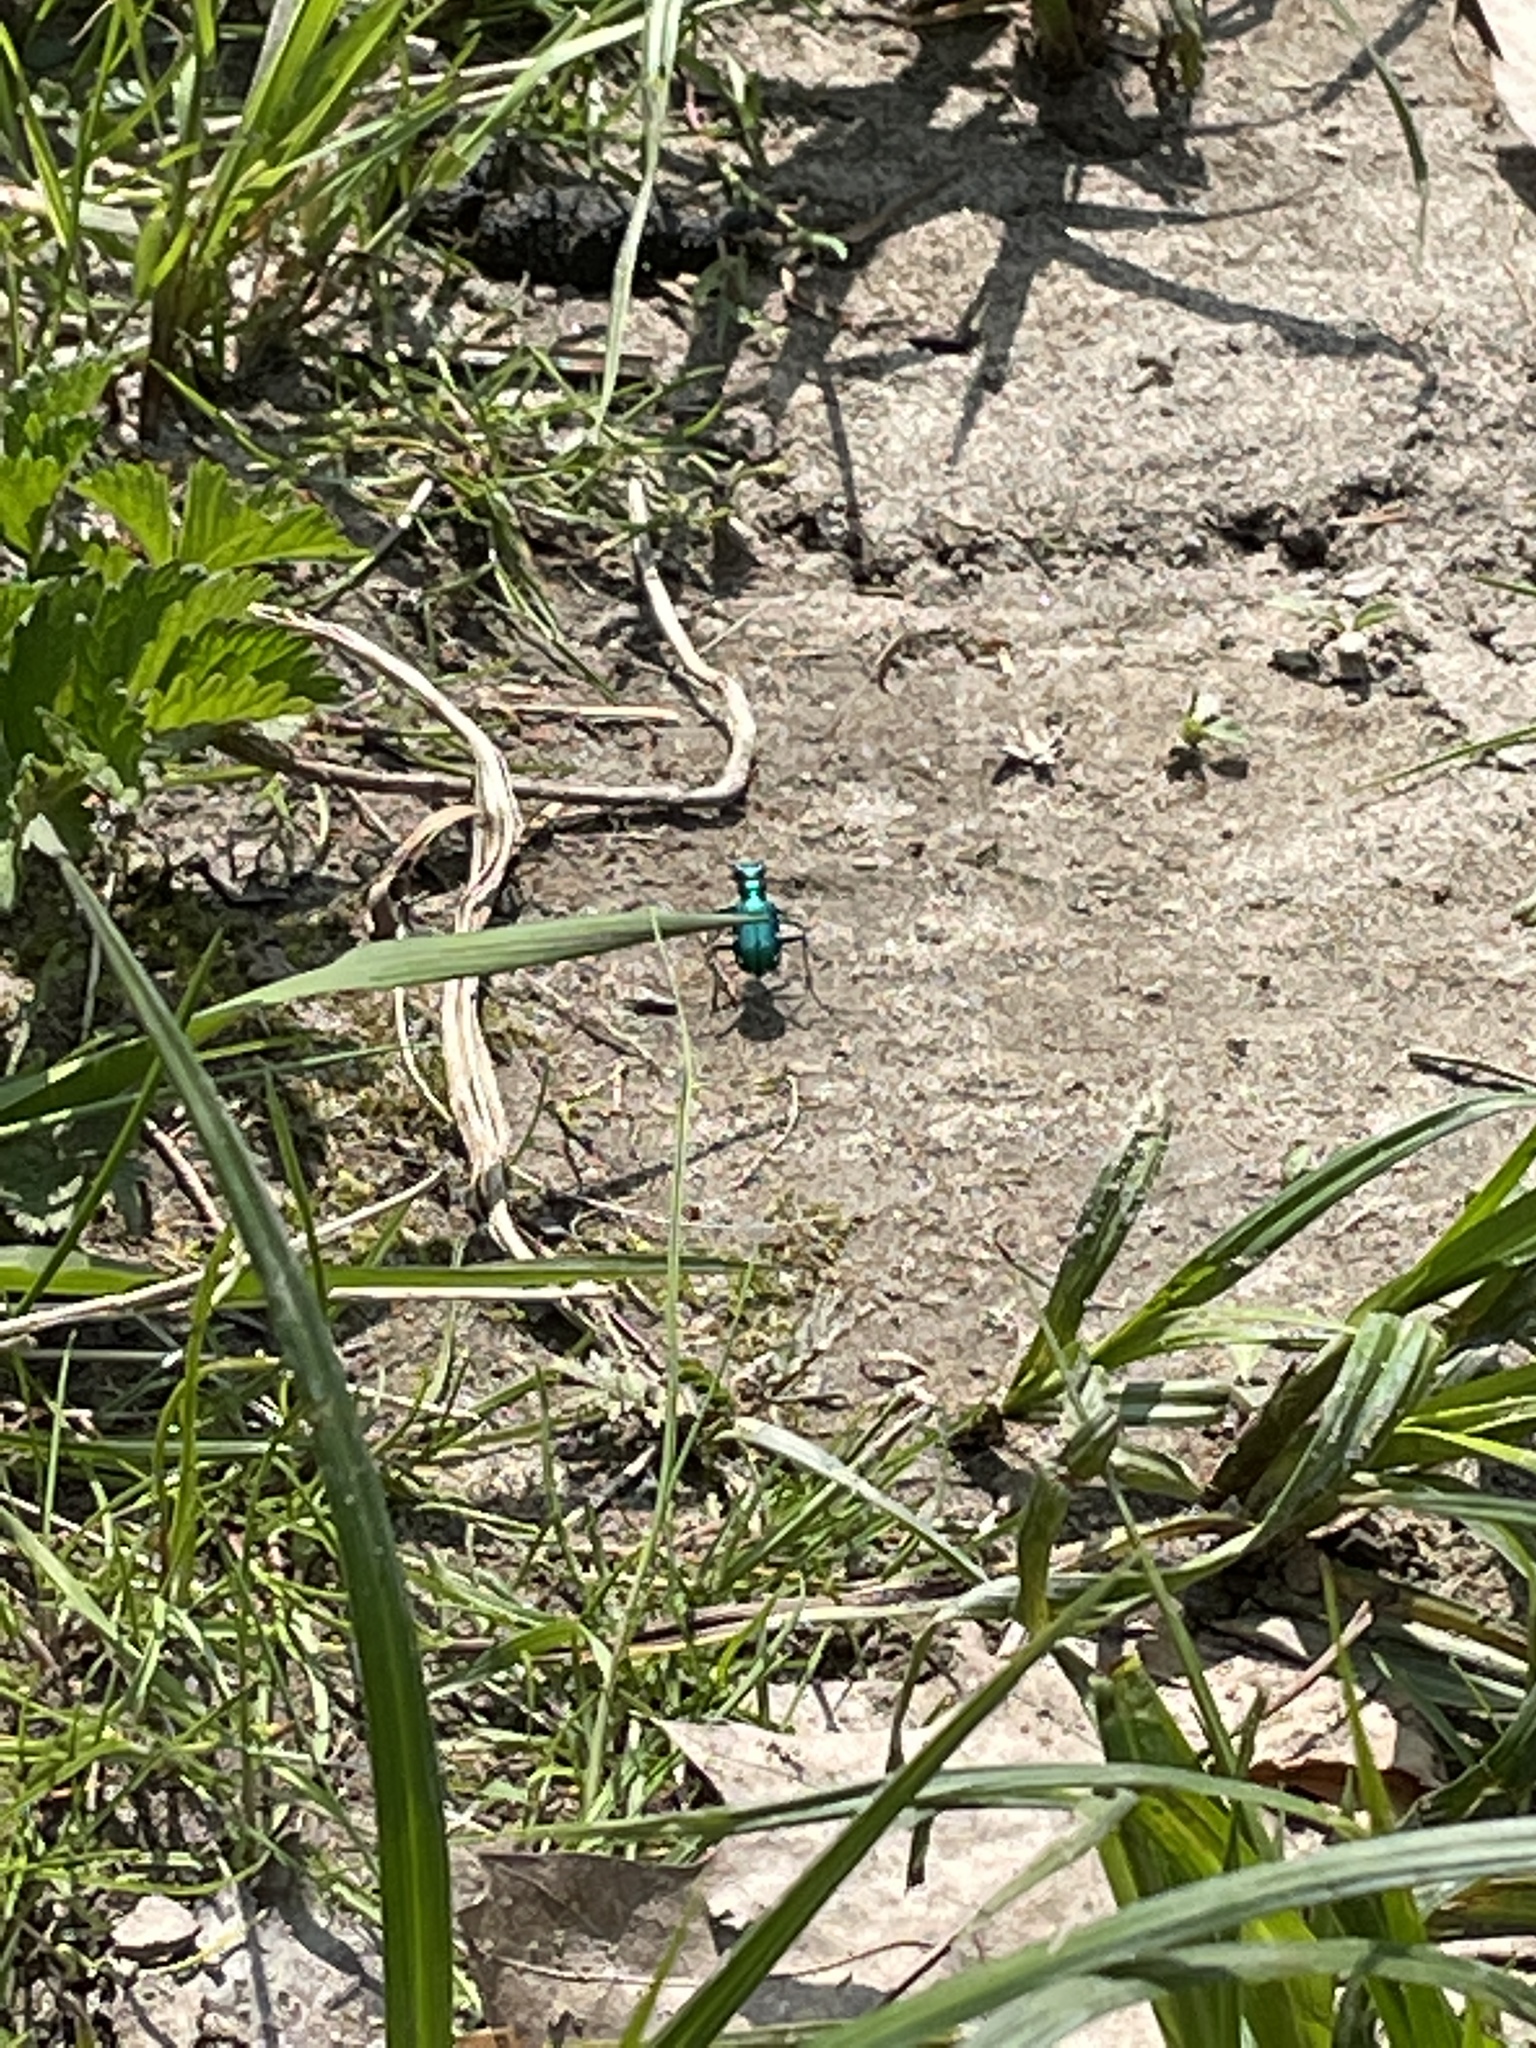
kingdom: Animalia
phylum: Arthropoda
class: Insecta
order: Coleoptera
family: Carabidae
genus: Cicindela
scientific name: Cicindela sexguttata
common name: Six-spotted tiger beetle
